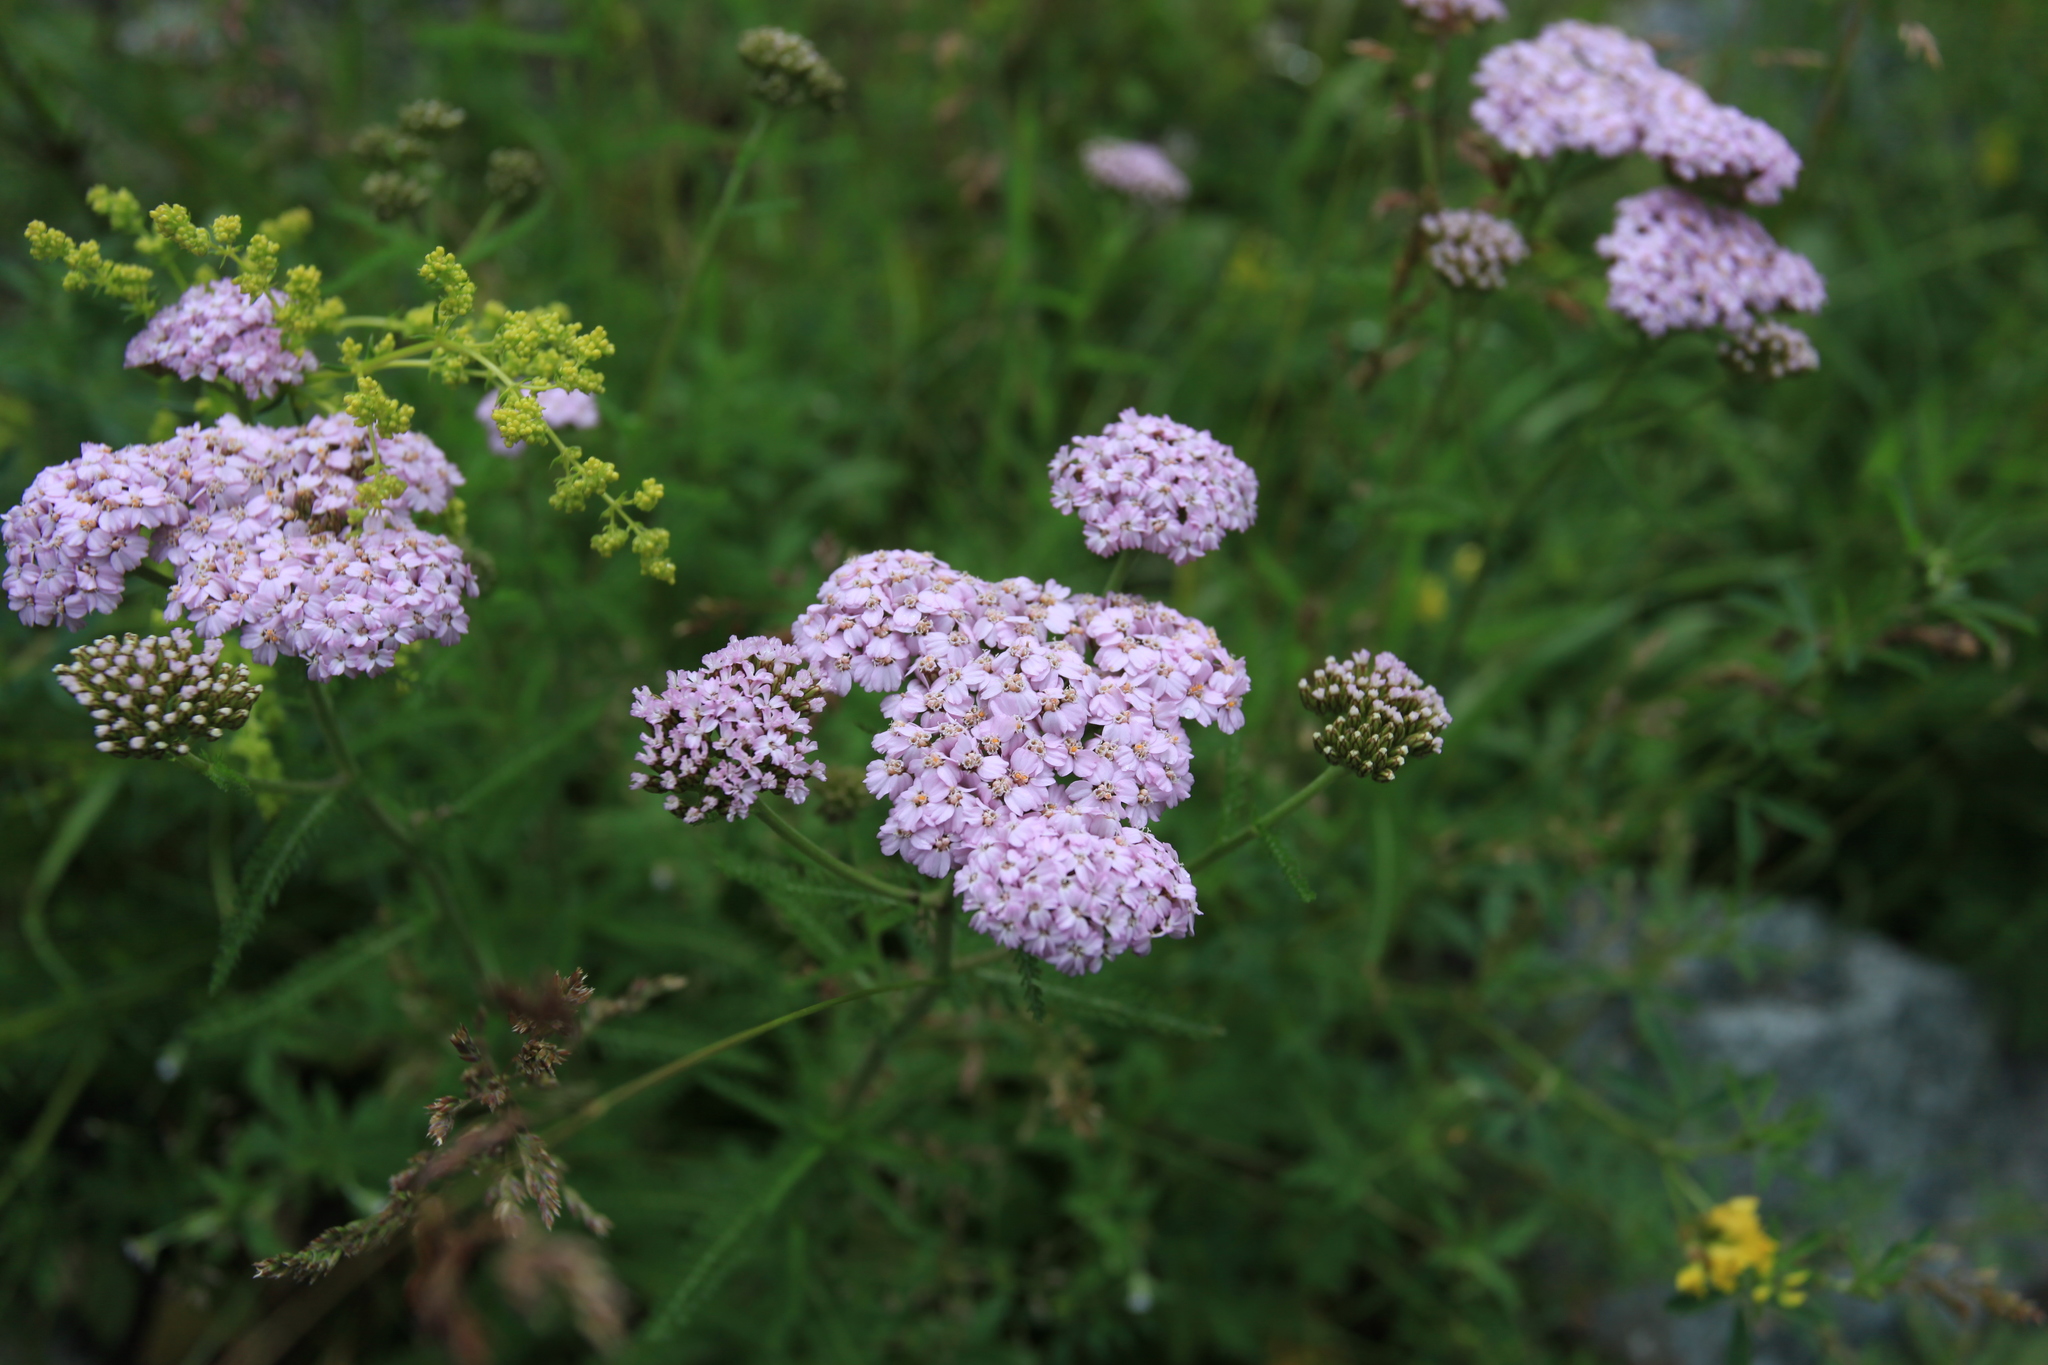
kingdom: Plantae
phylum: Tracheophyta
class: Magnoliopsida
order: Asterales
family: Asteraceae
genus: Achillea
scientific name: Achillea millefolium
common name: Yarrow
